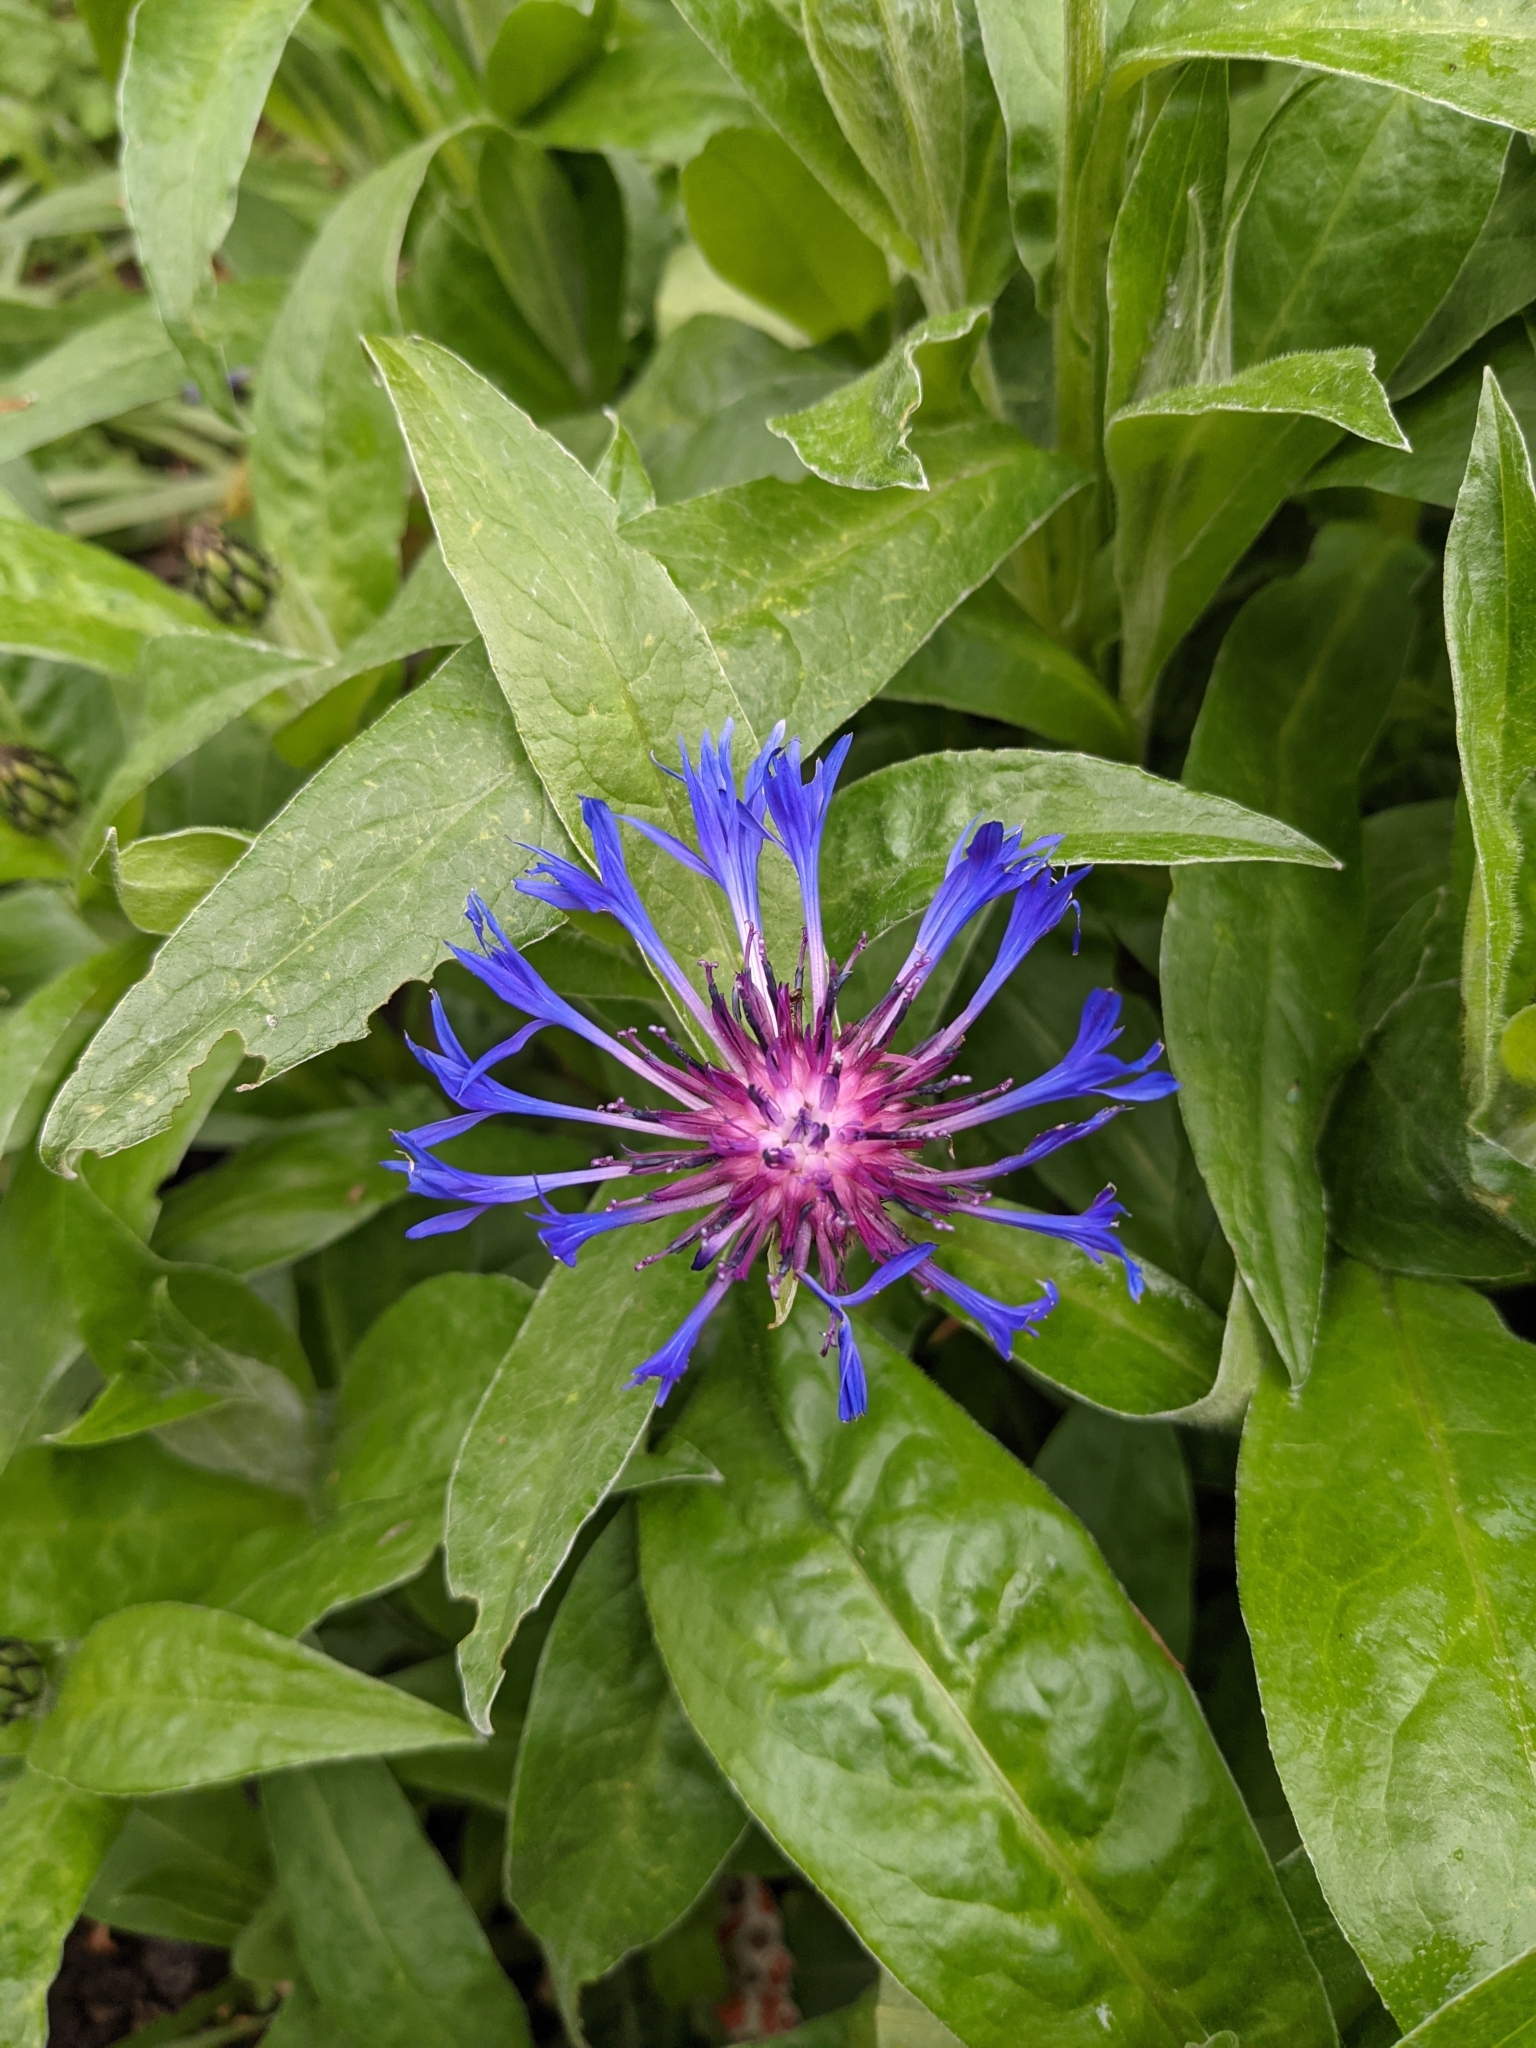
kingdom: Plantae
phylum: Tracheophyta
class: Magnoliopsida
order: Asterales
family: Asteraceae
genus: Centaurea
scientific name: Centaurea montana
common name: Perennial cornflower
